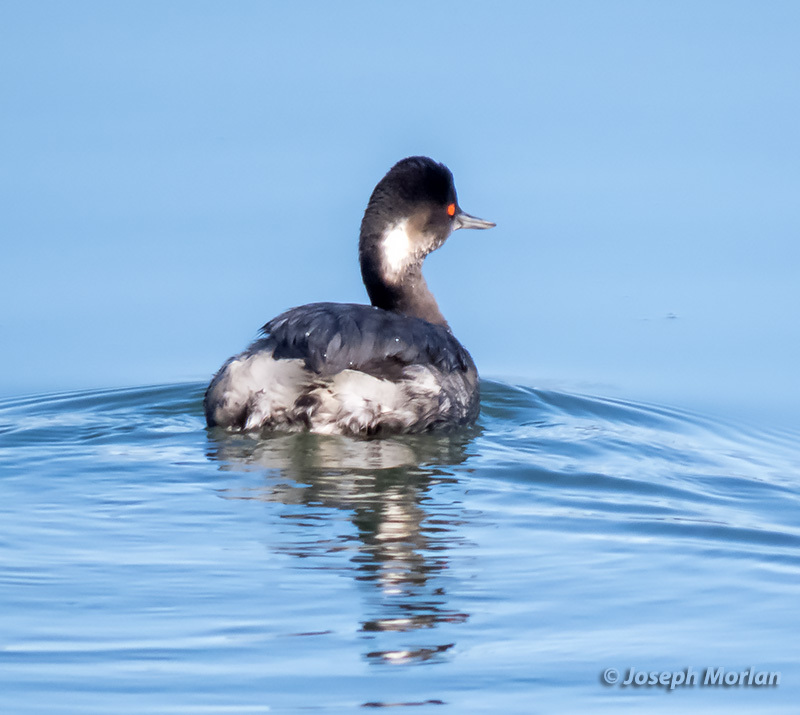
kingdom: Animalia
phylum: Chordata
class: Aves
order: Podicipediformes
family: Podicipedidae
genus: Podiceps
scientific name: Podiceps nigricollis
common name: Black-necked grebe
